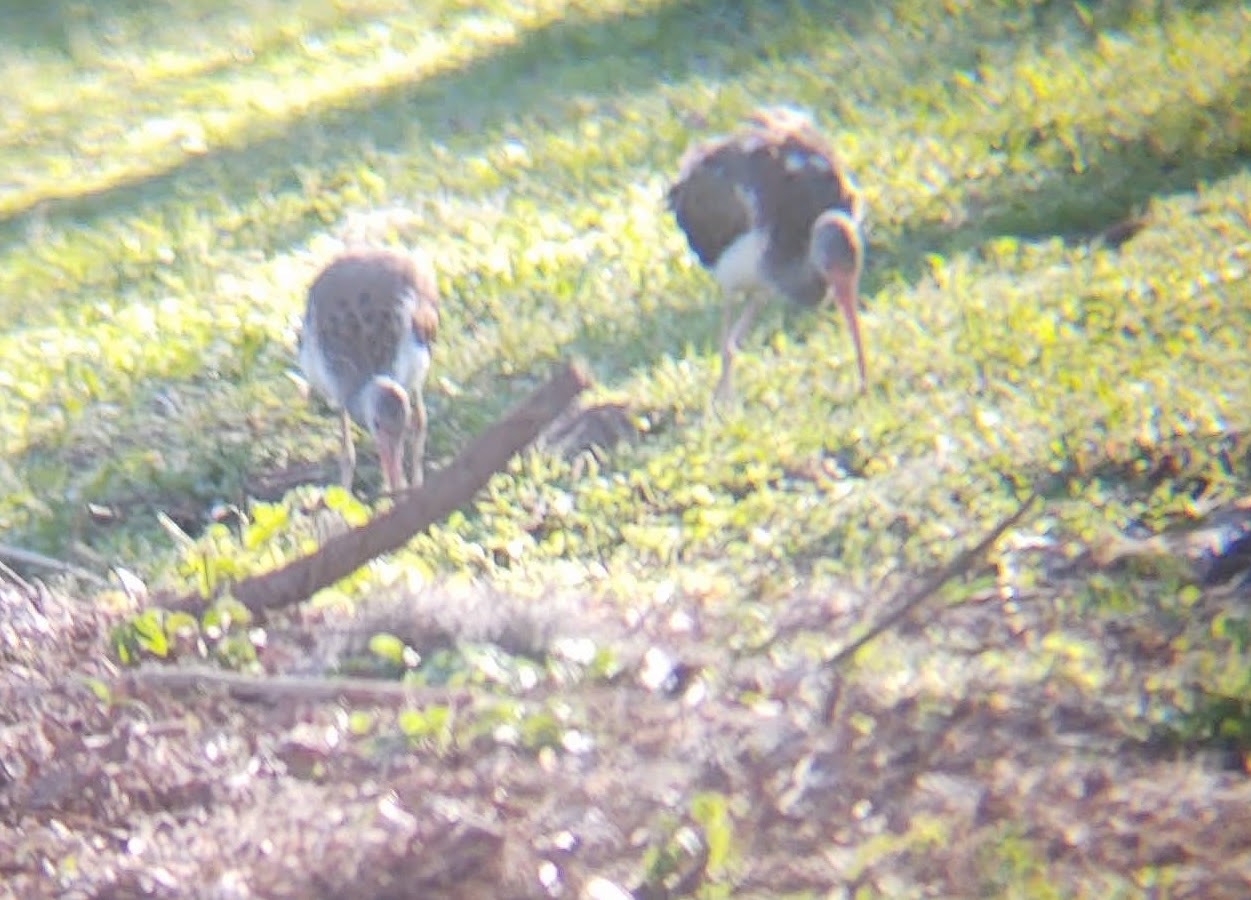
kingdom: Animalia
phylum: Chordata
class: Aves
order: Pelecaniformes
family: Threskiornithidae
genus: Eudocimus
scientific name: Eudocimus albus
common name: White ibis
